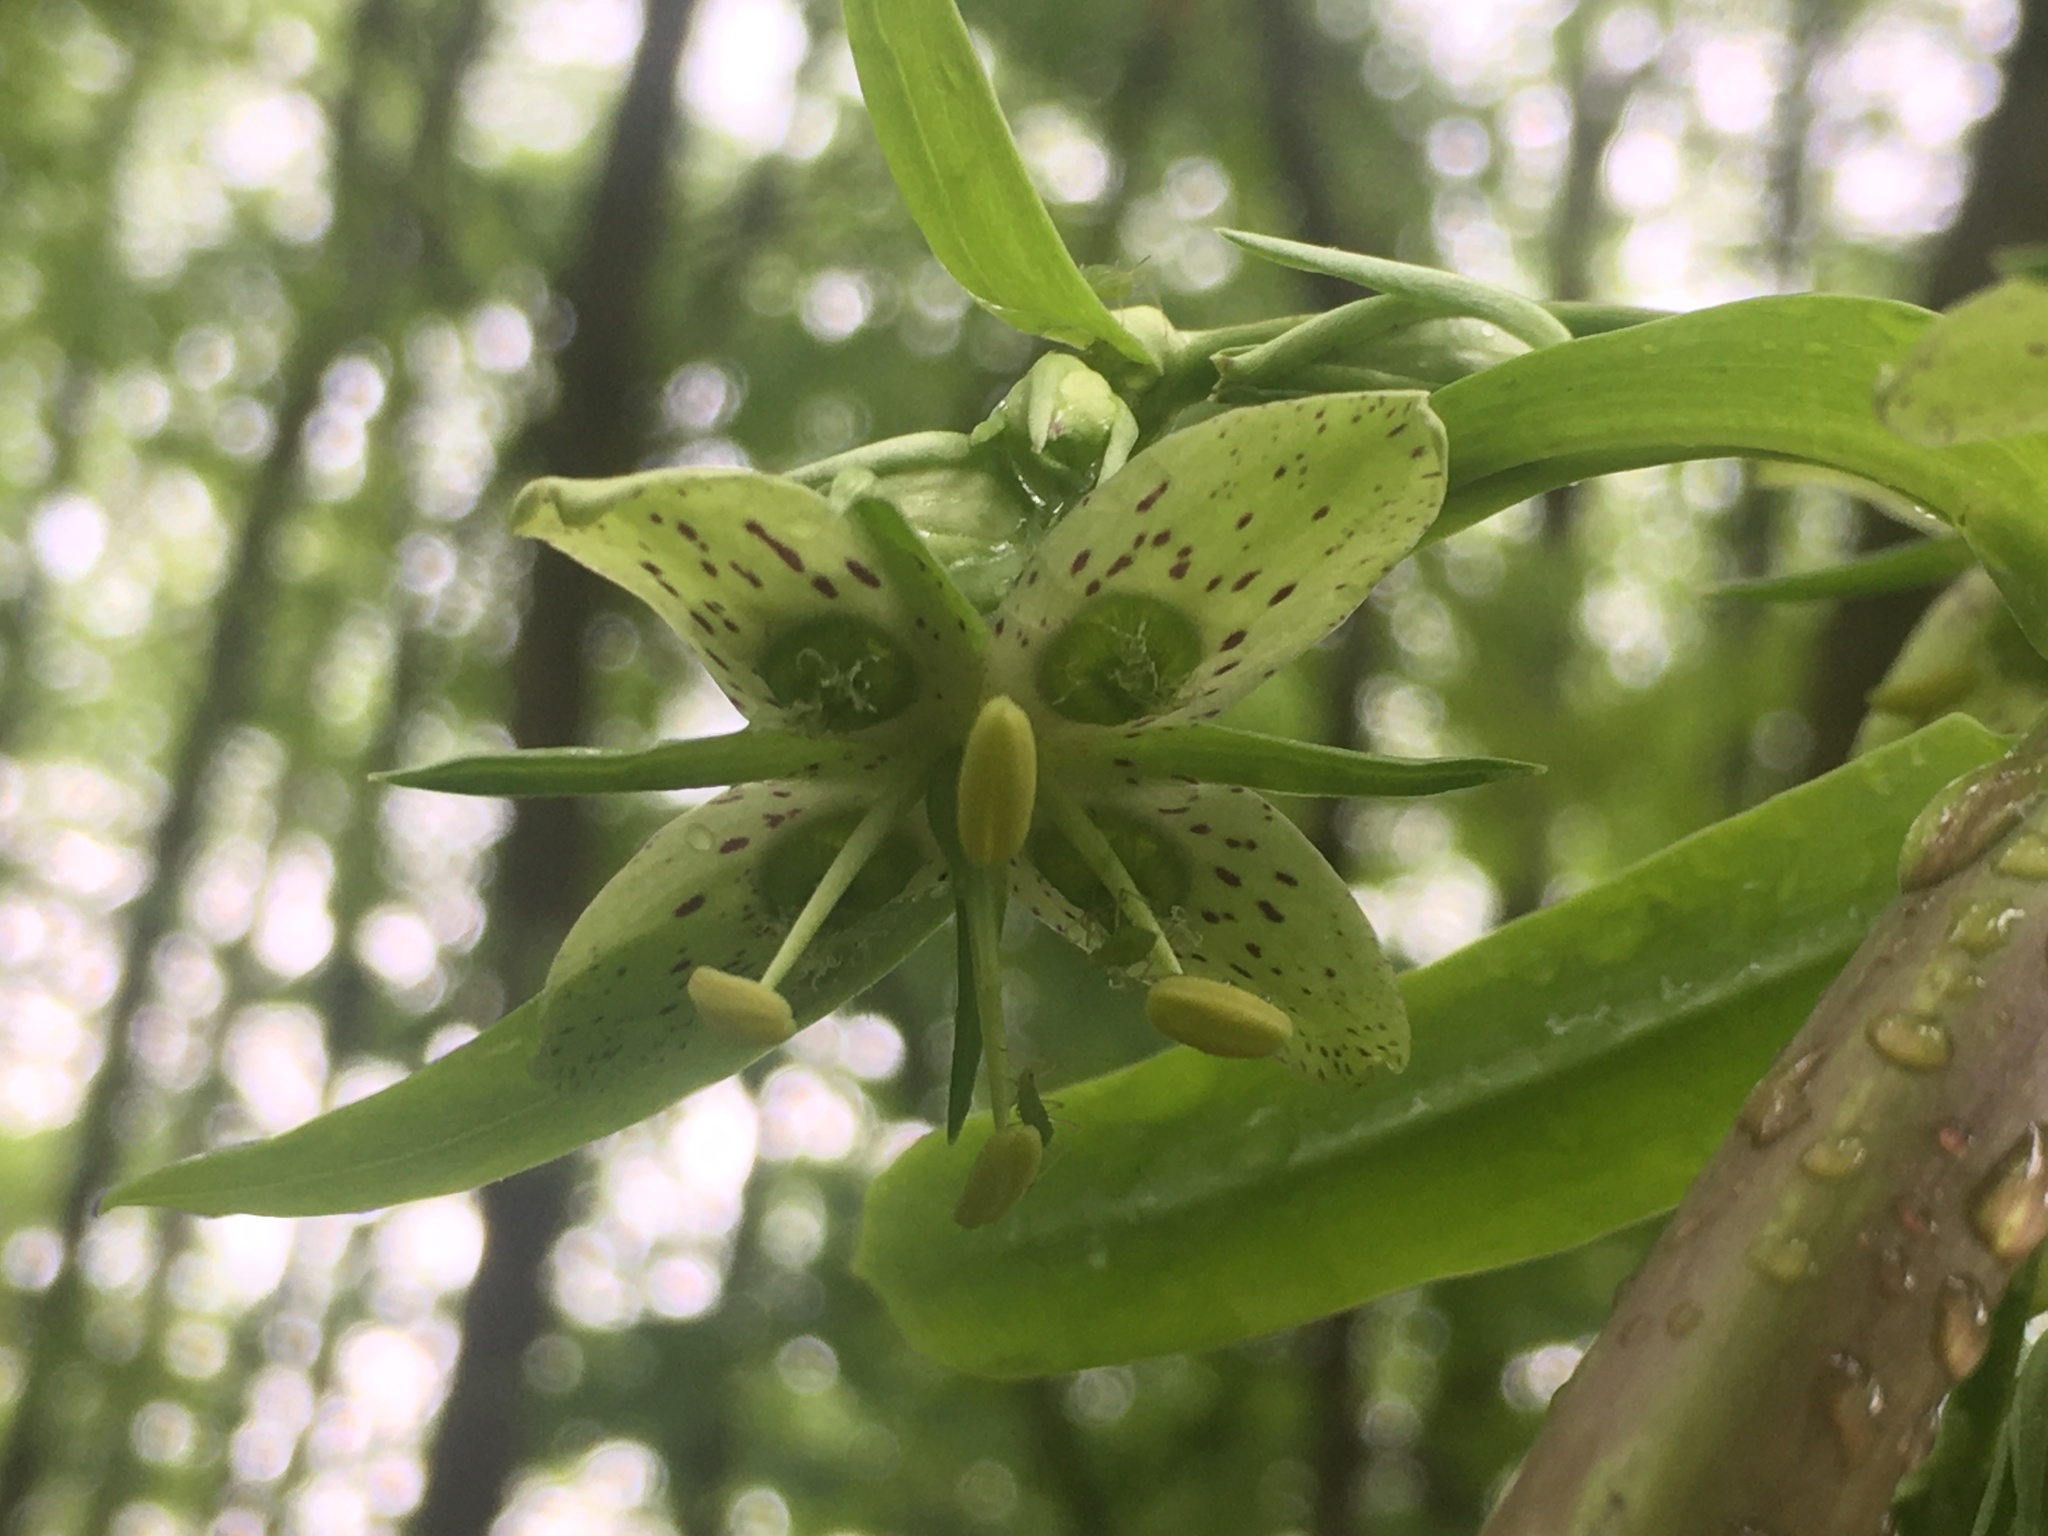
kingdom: Plantae
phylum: Tracheophyta
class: Magnoliopsida
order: Gentianales
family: Gentianaceae
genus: Frasera
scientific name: Frasera caroliniensis
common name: American columbo
